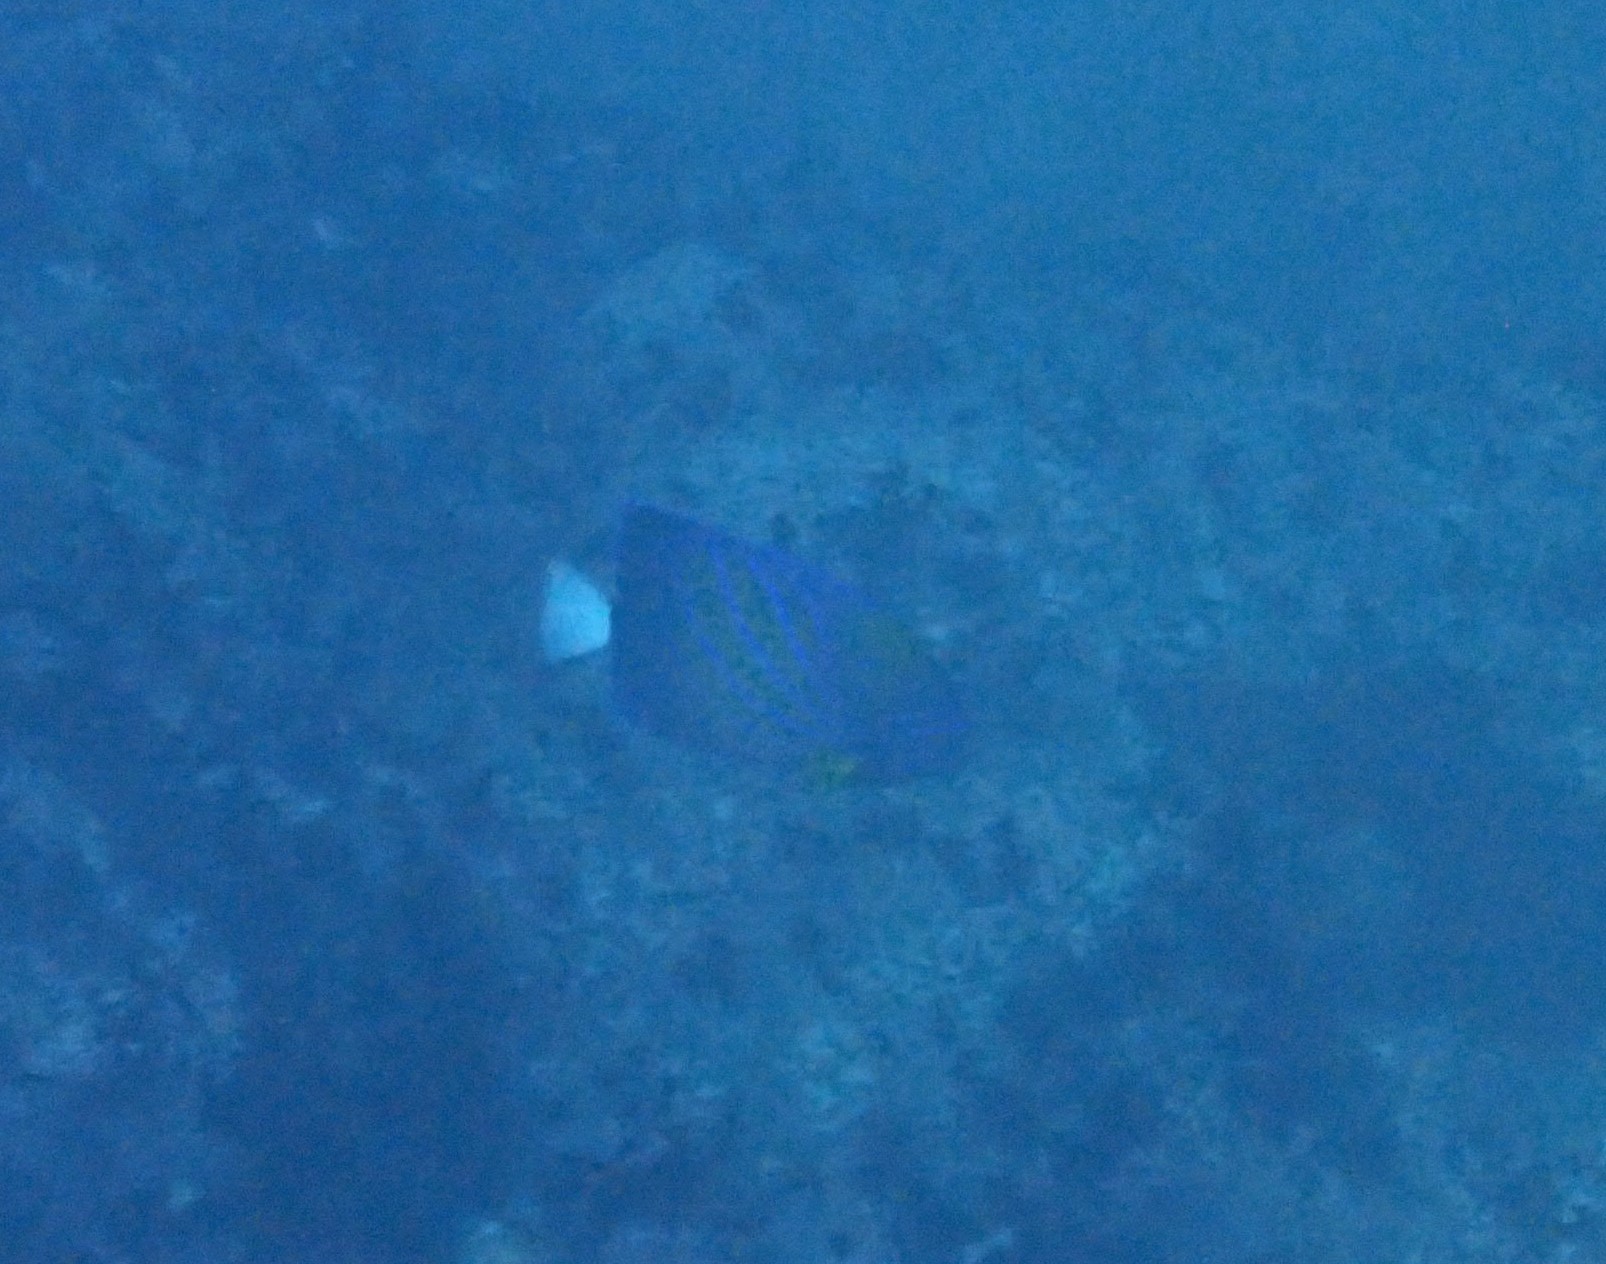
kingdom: Animalia
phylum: Chordata
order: Perciformes
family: Pomacanthidae
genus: Pomacanthus
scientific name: Pomacanthus annularis
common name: Bluering angelfish
